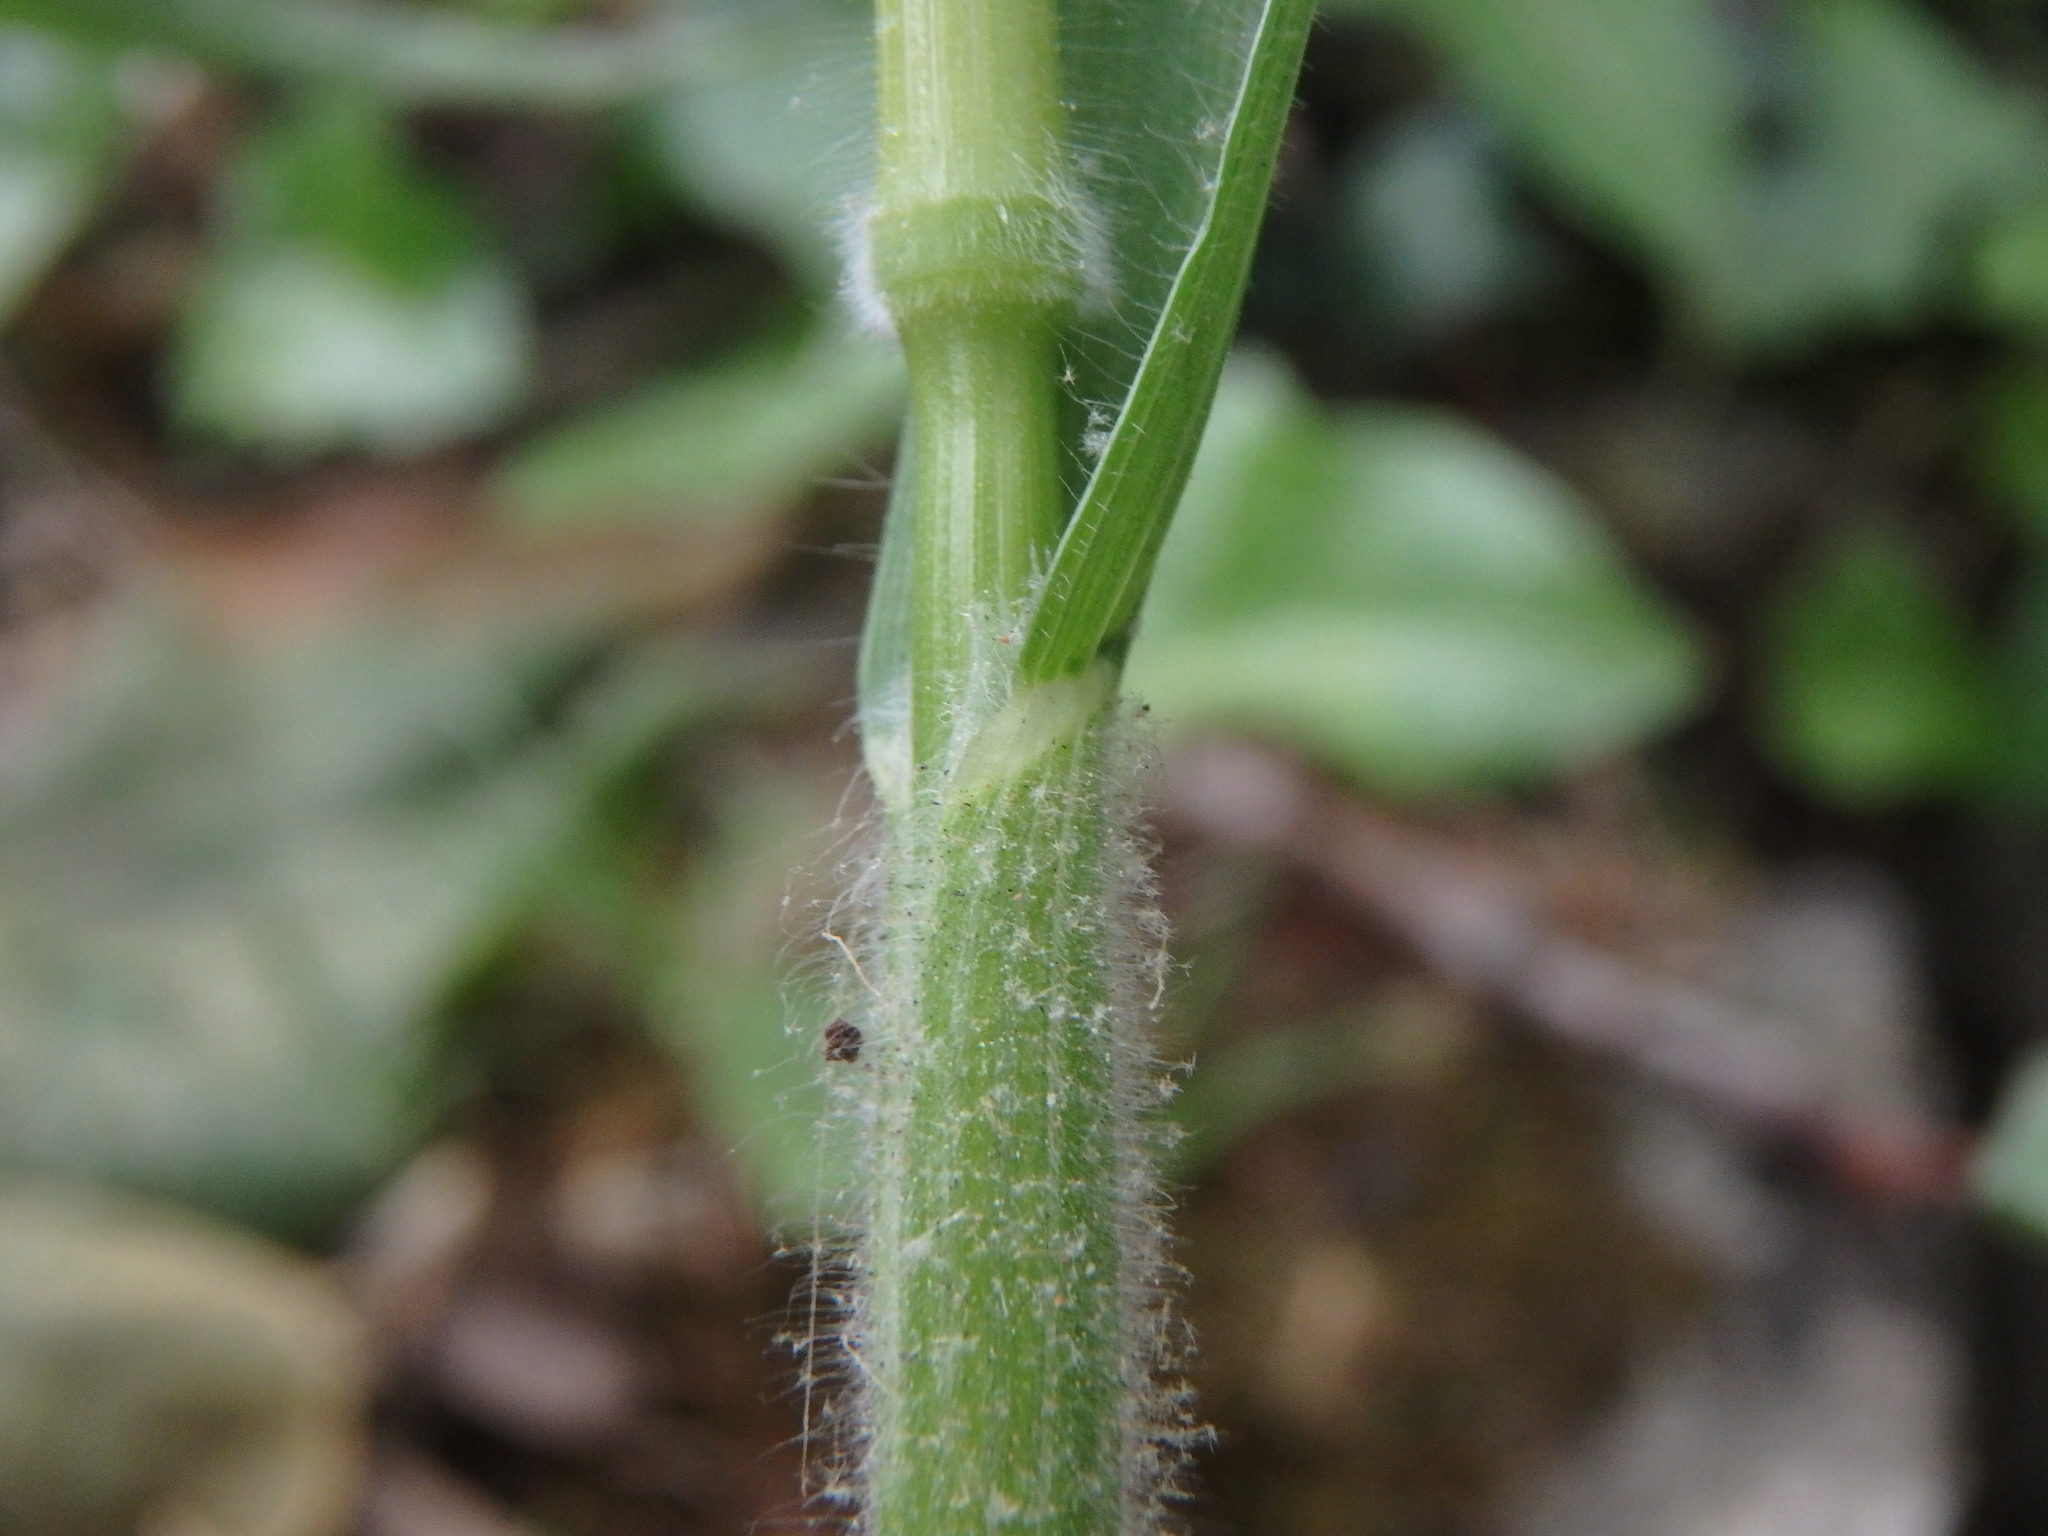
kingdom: Plantae
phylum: Tracheophyta
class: Liliopsida
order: Poales
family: Poaceae
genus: Bromus
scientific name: Bromus hordeaceus
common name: Soft brome
